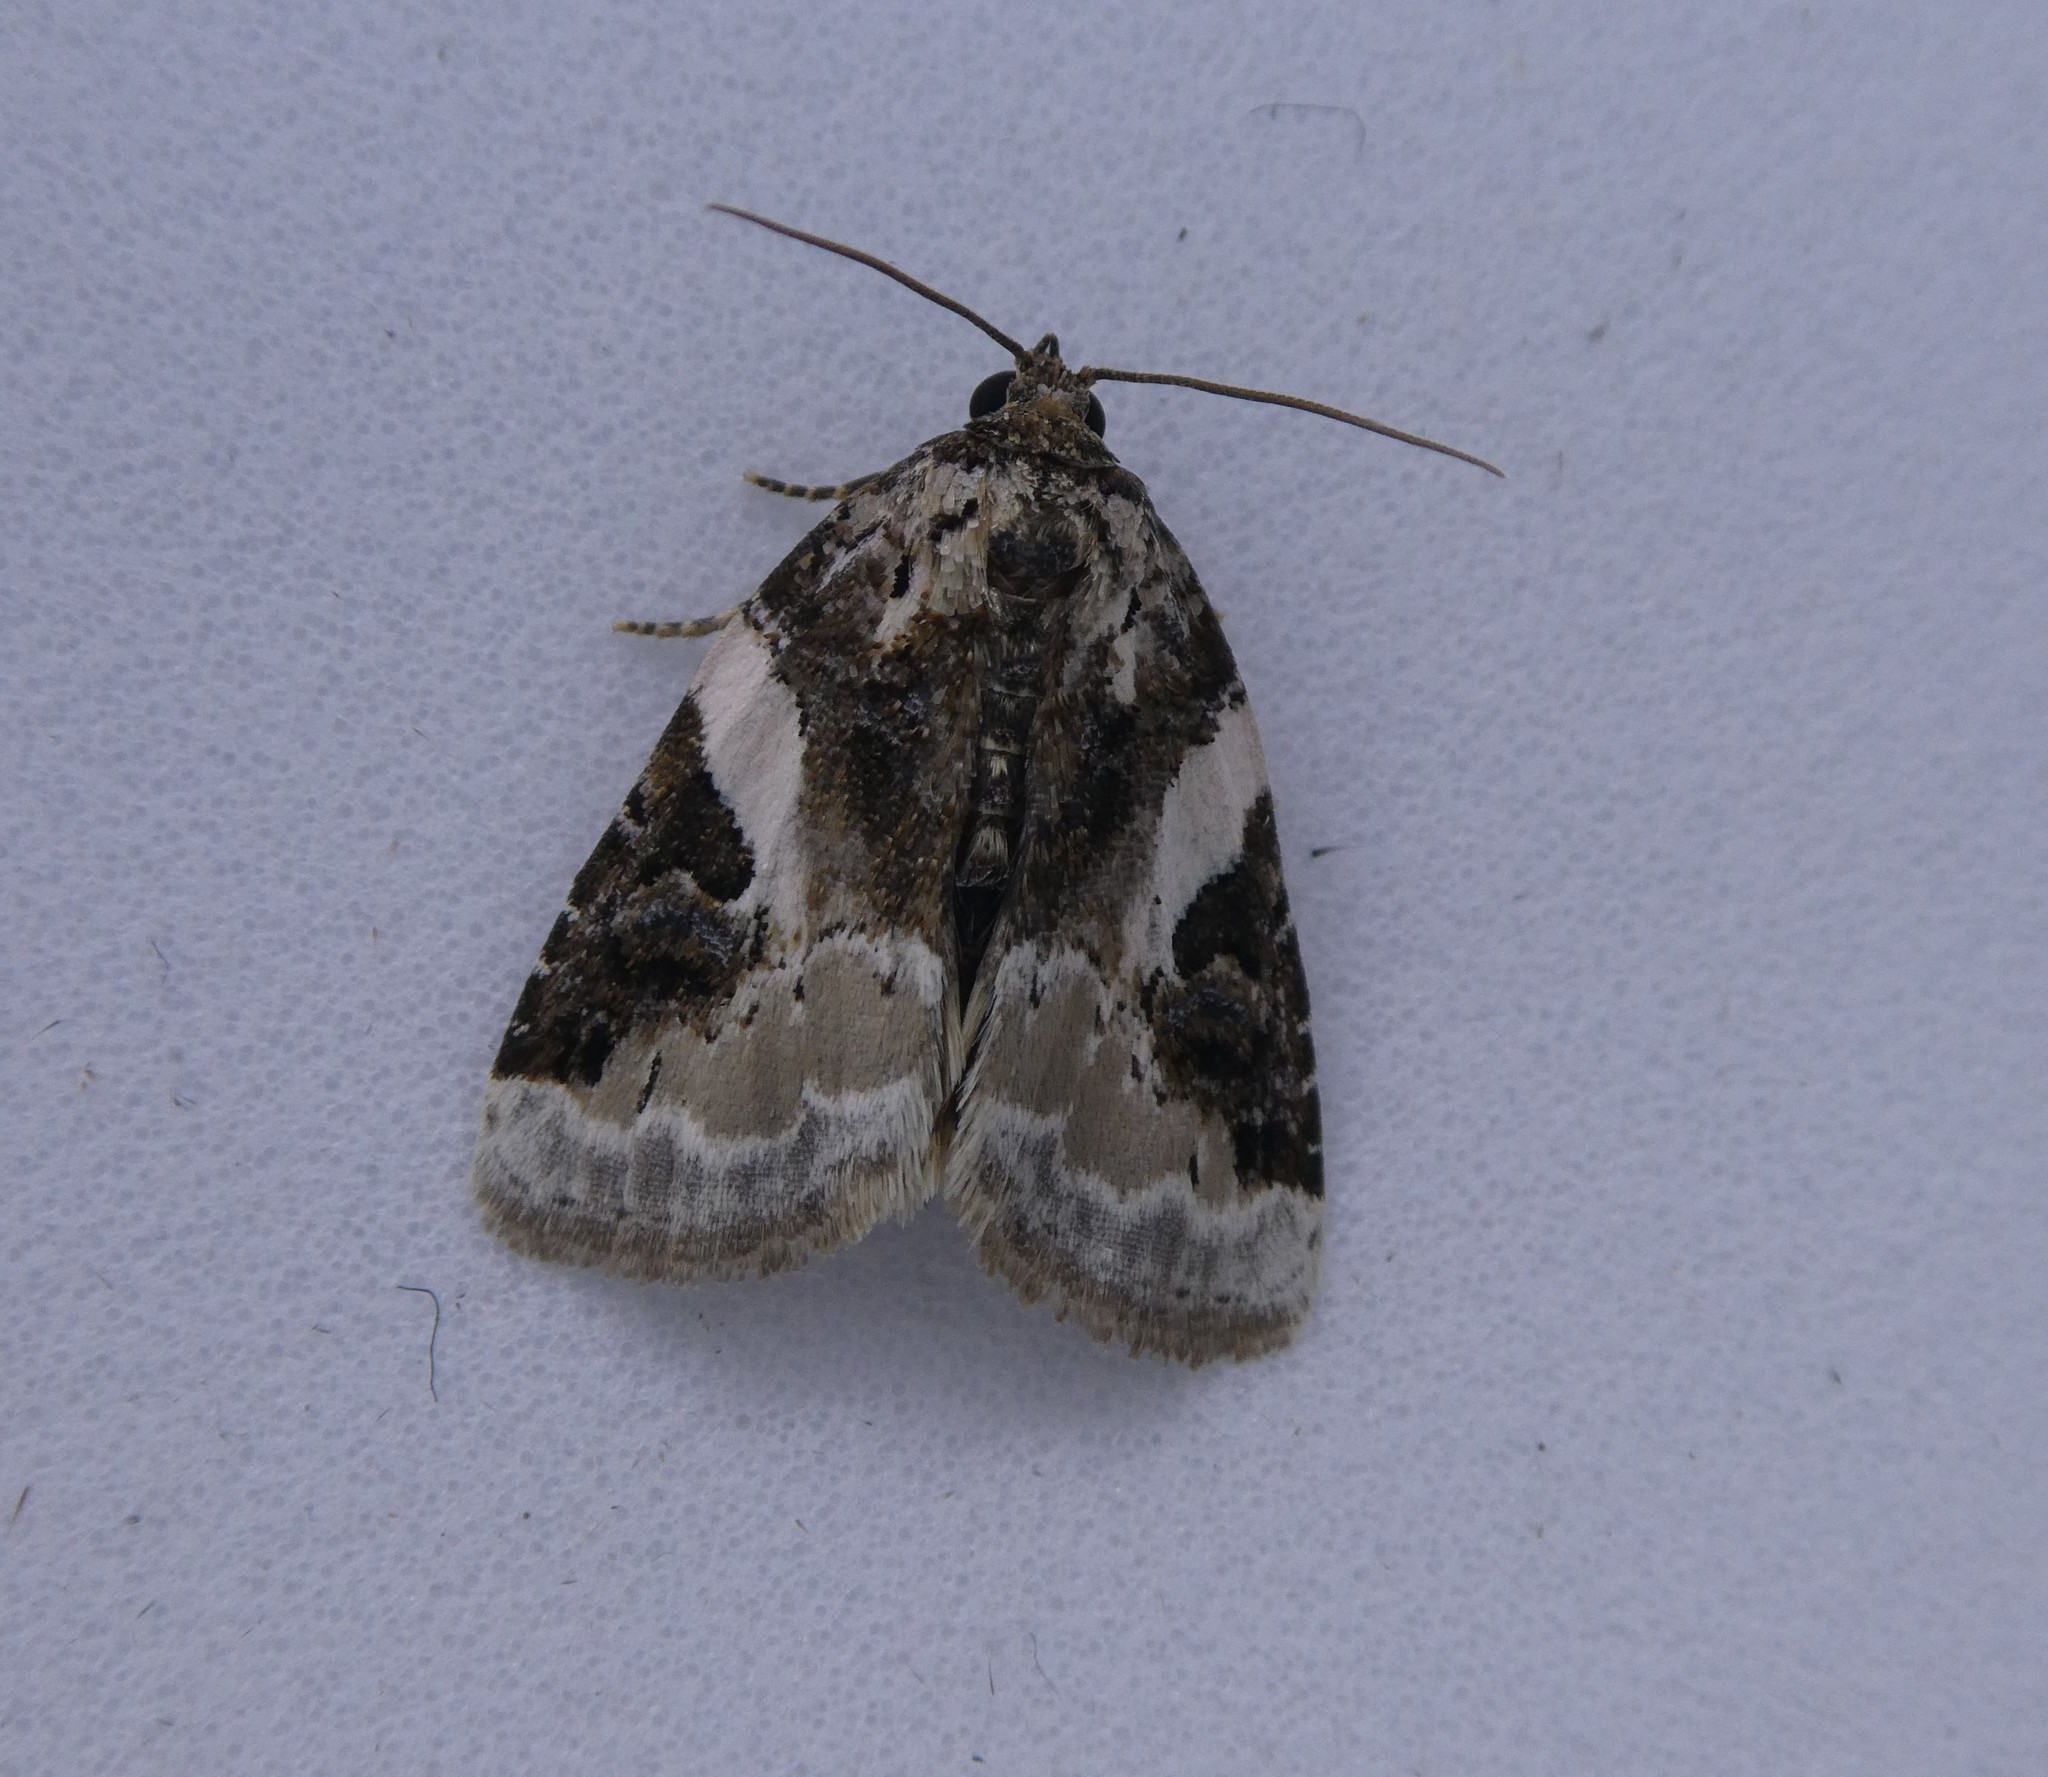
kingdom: Animalia
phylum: Arthropoda
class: Insecta
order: Lepidoptera
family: Noctuidae
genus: Pseudeustrotia
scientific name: Pseudeustrotia carneola
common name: Pink-barred lithacodia moth
